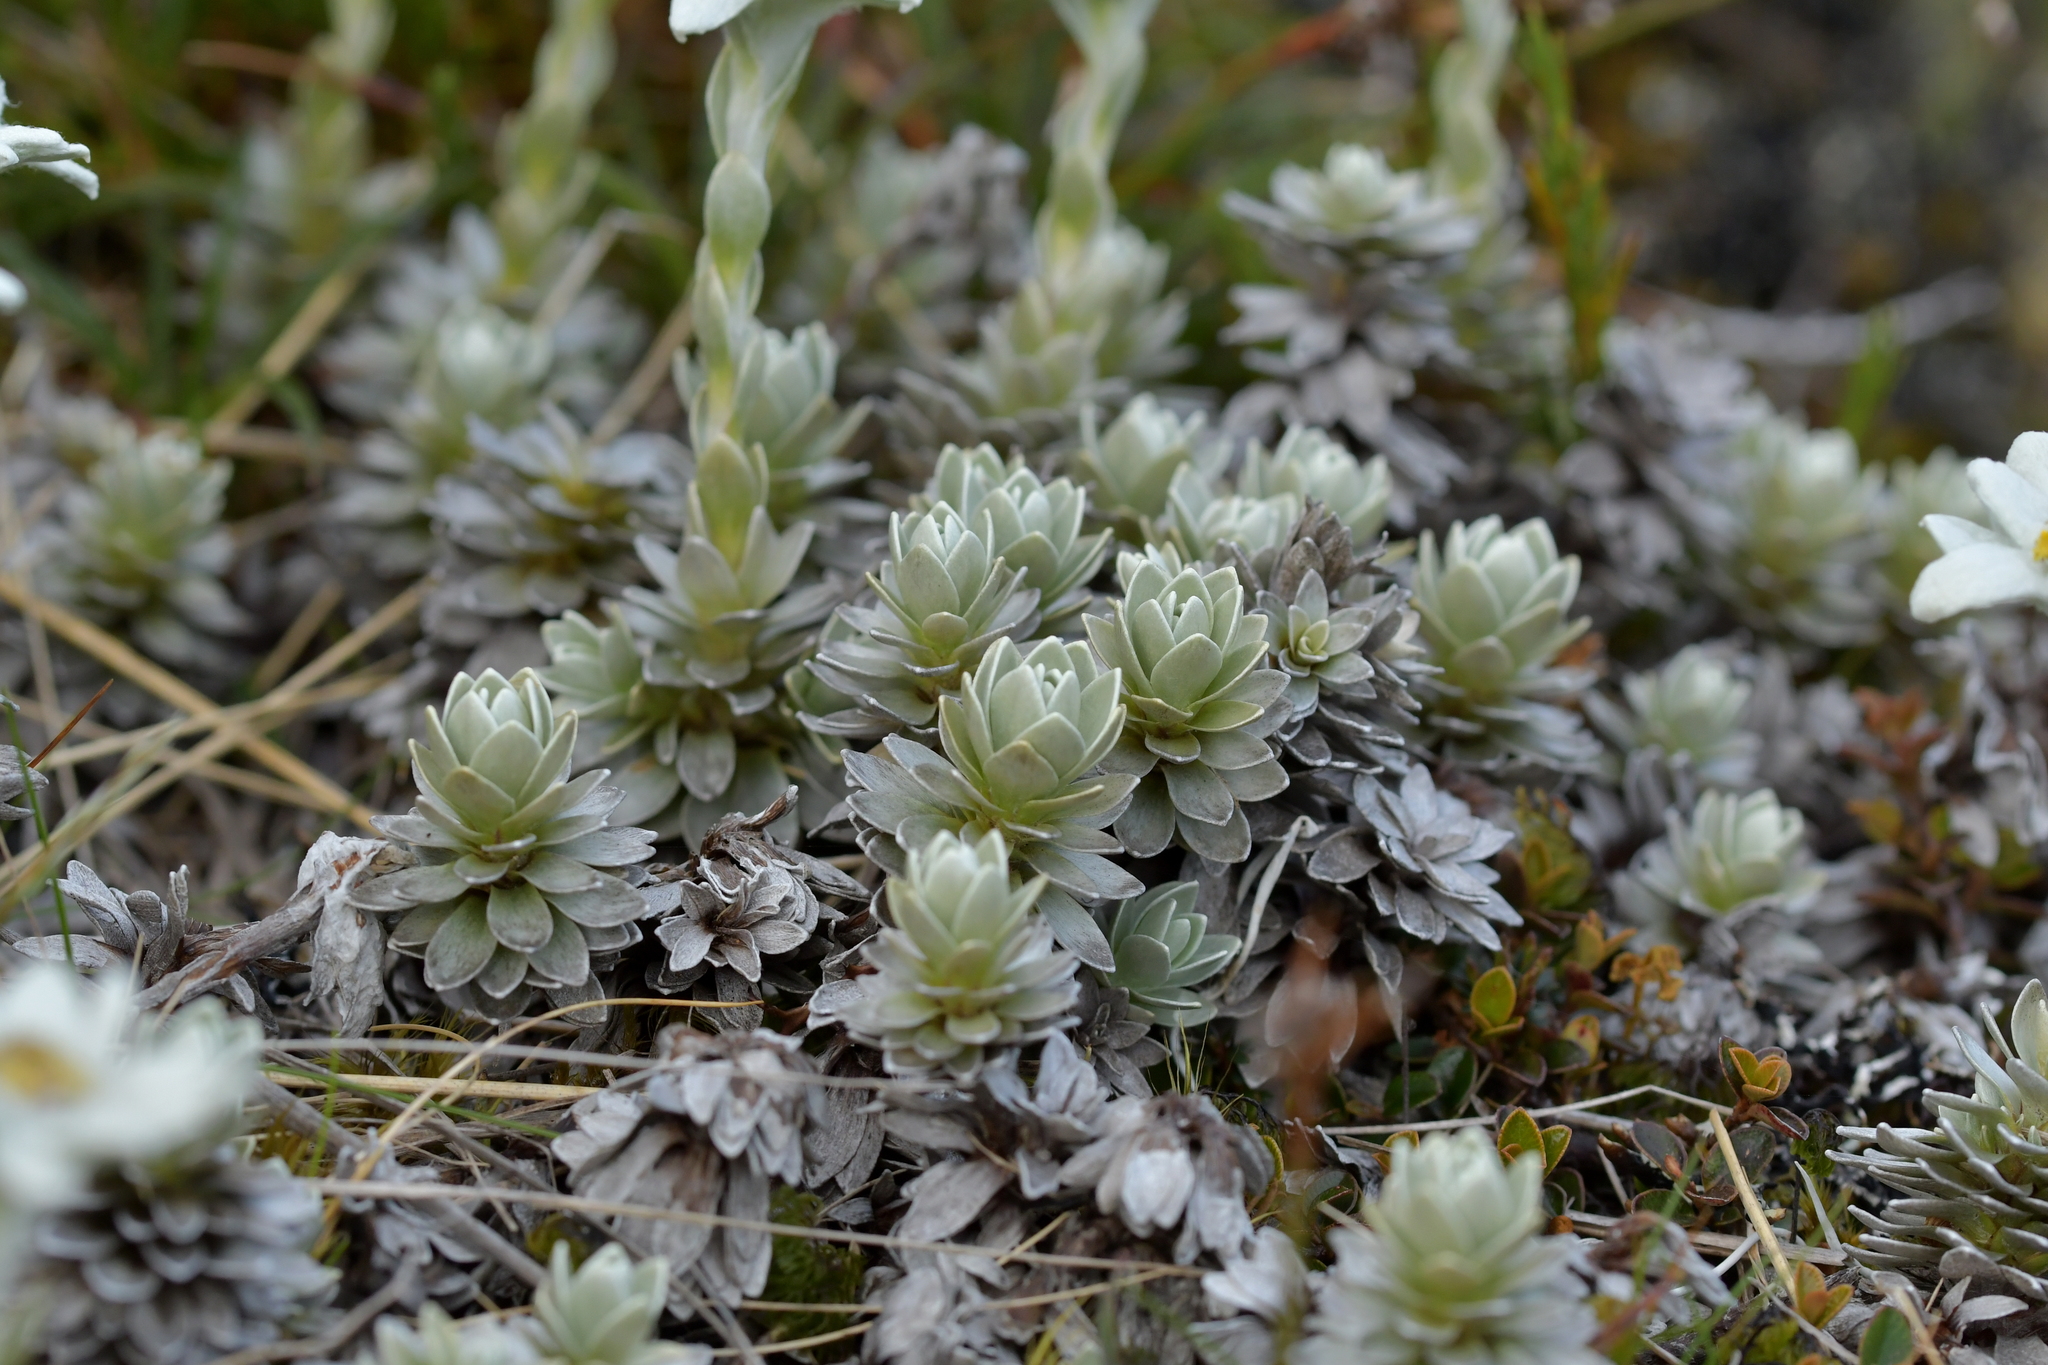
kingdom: Plantae
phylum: Tracheophyta
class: Magnoliopsida
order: Asterales
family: Asteraceae
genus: Leucogenes
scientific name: Leucogenes leontopodium
